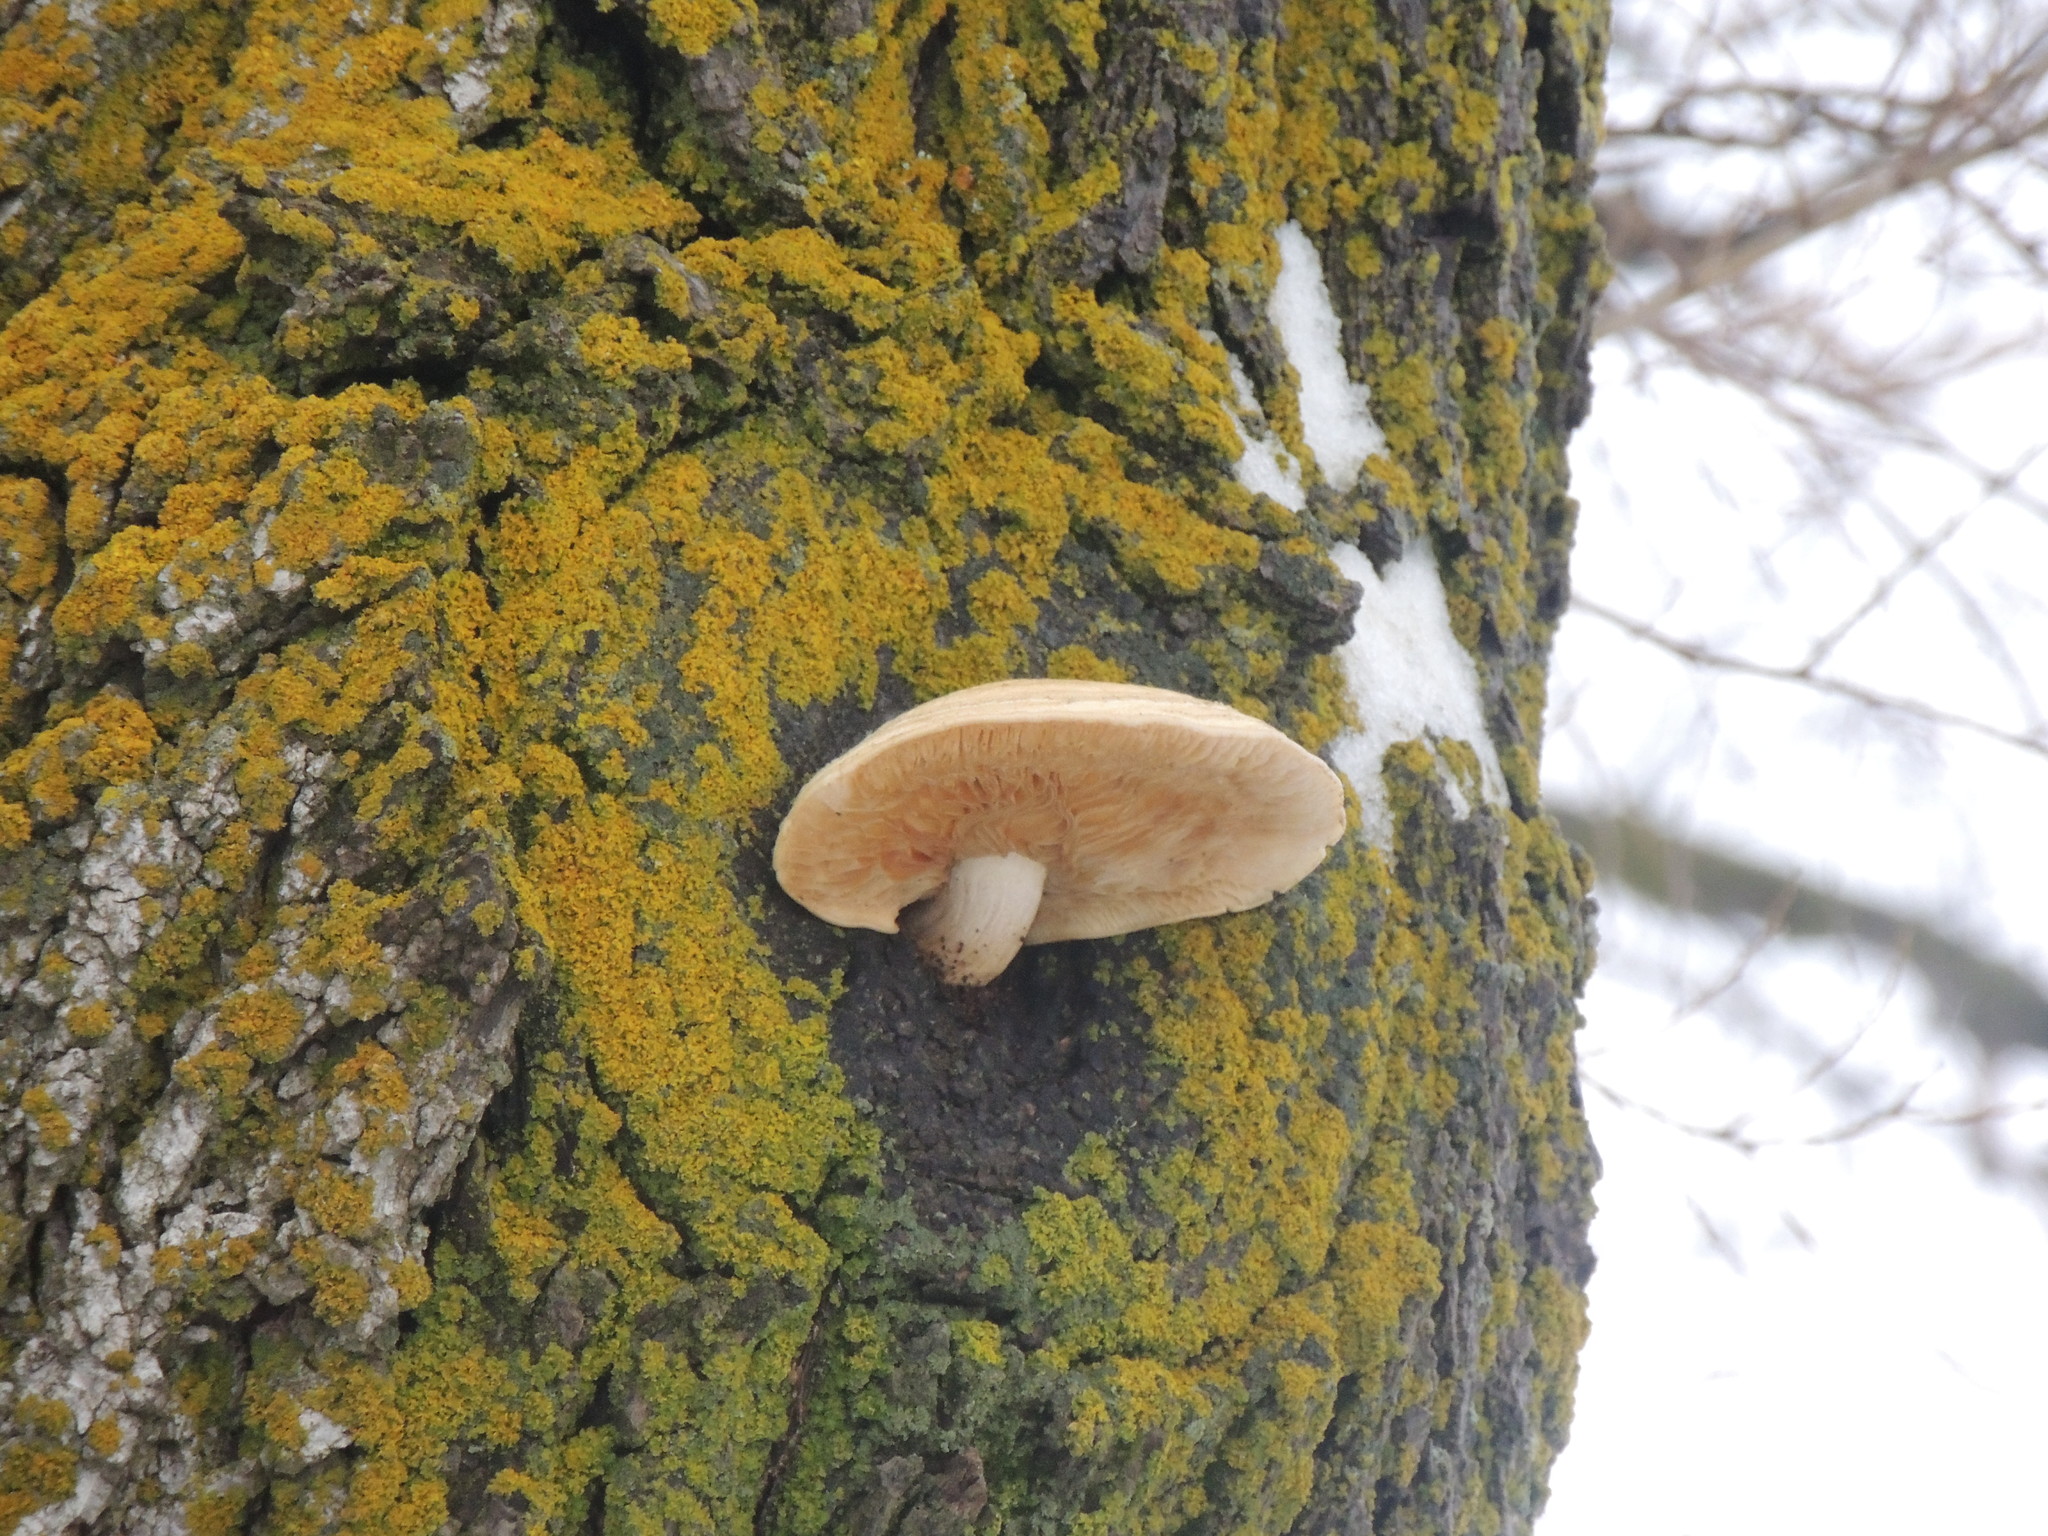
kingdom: Fungi
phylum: Basidiomycota
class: Agaricomycetes
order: Agaricales
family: Lyophyllaceae
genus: Hypsizygus
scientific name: Hypsizygus ulmarius
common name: Elm leech
